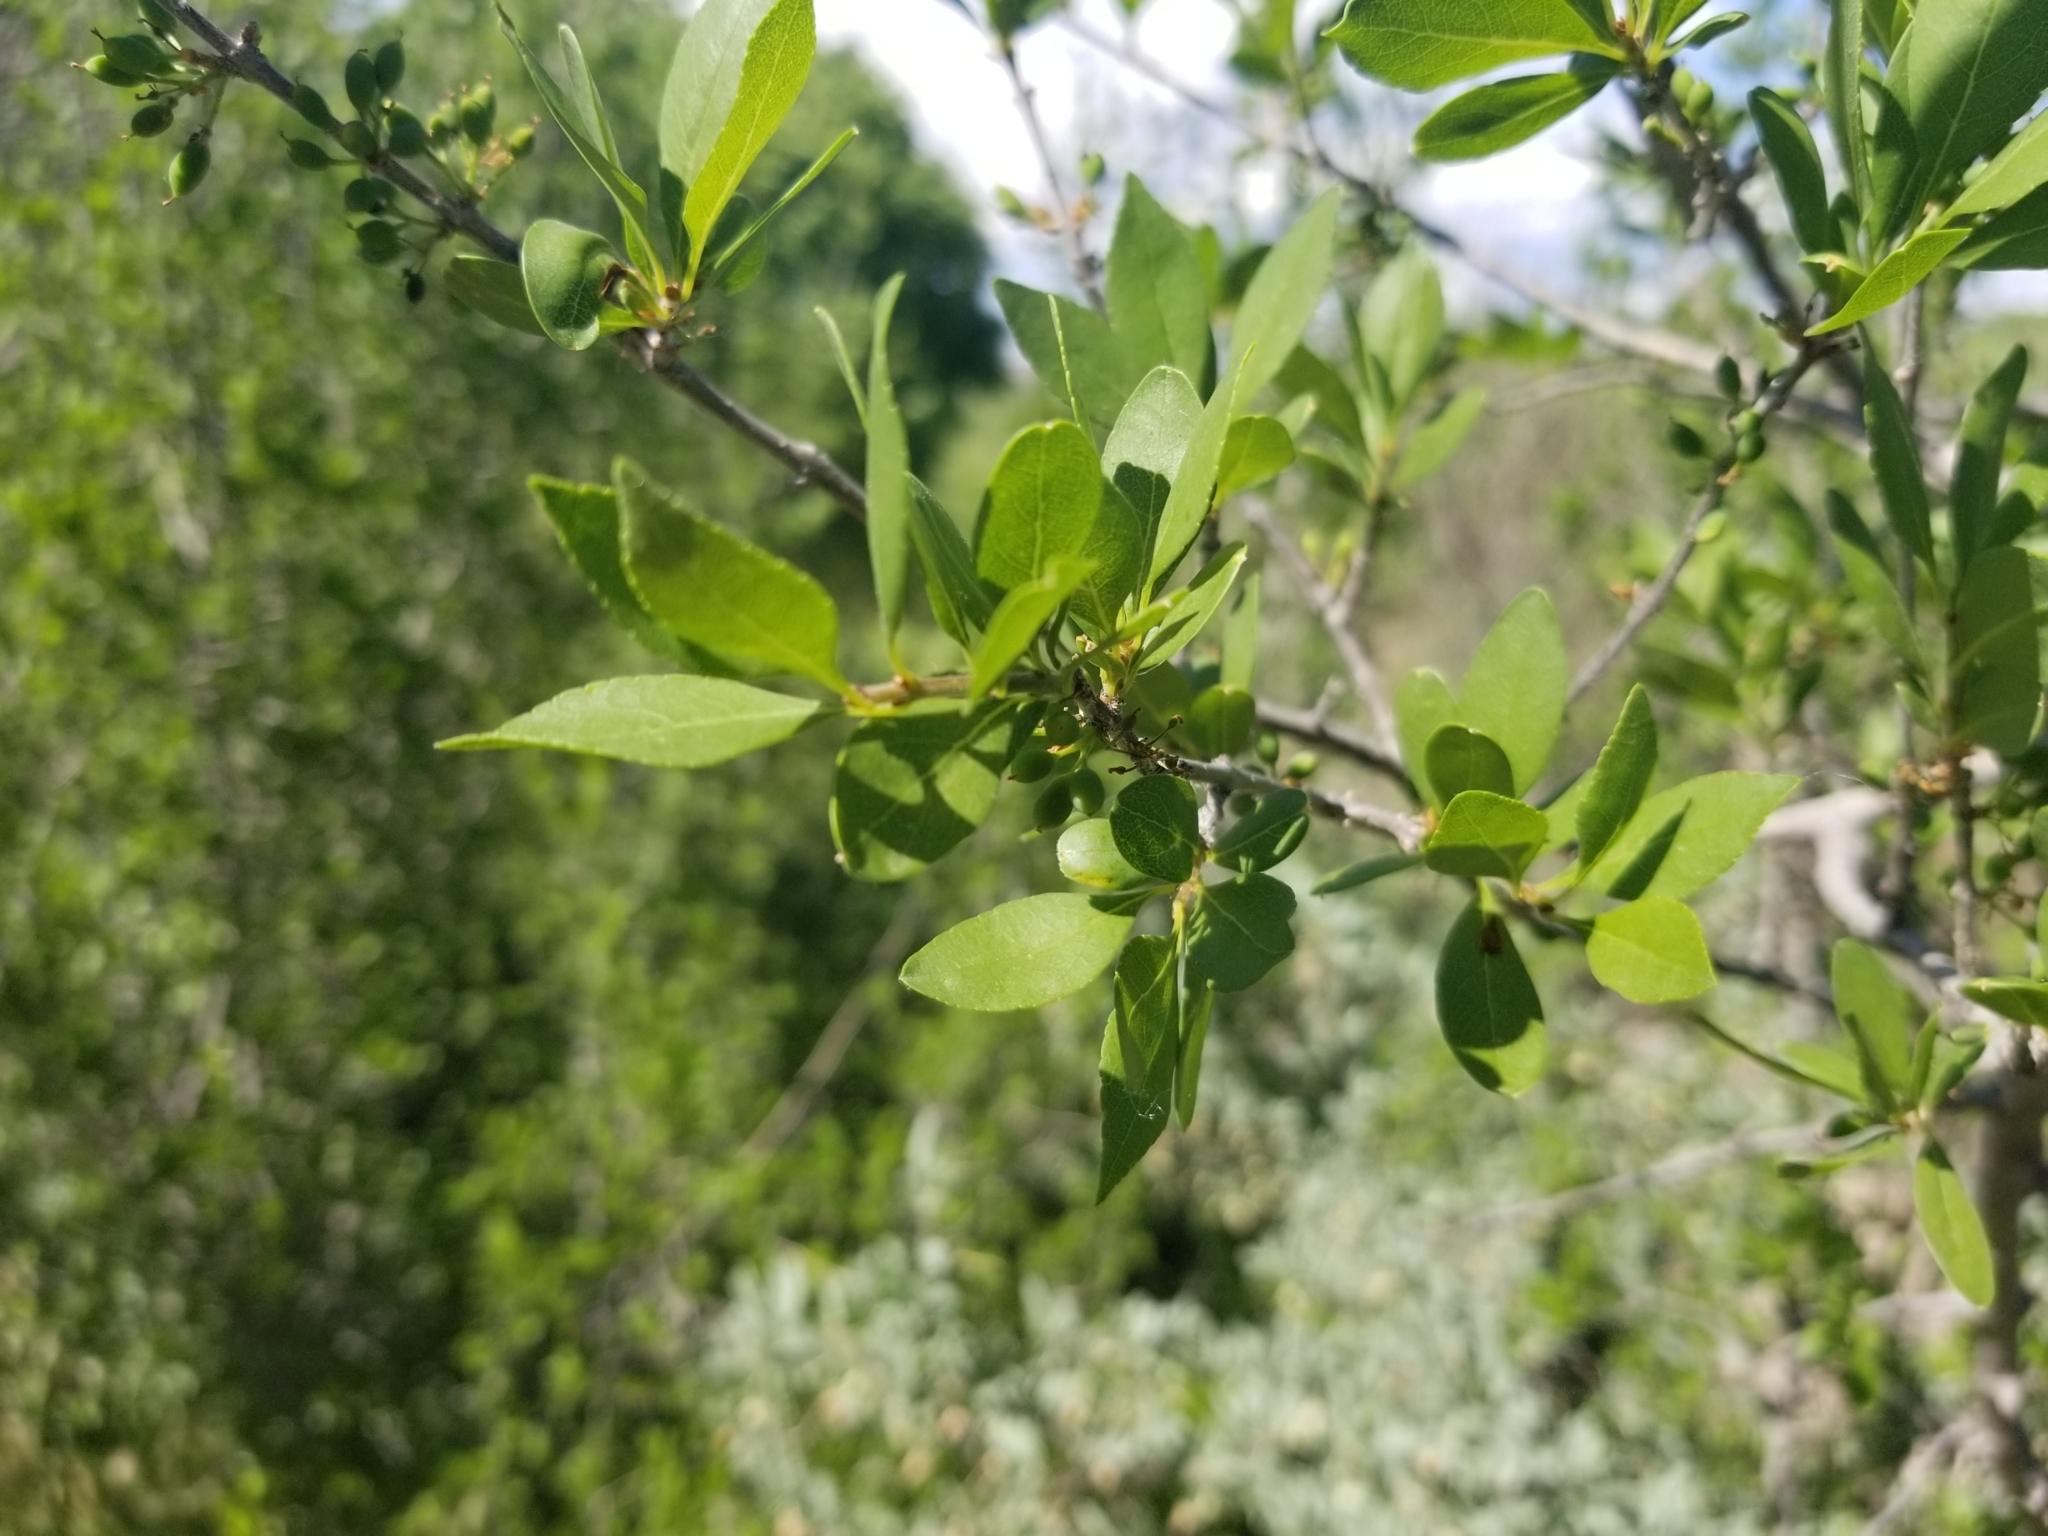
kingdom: Plantae
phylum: Tracheophyta
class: Magnoliopsida
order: Lamiales
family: Oleaceae
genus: Forestiera
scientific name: Forestiera pubescens
